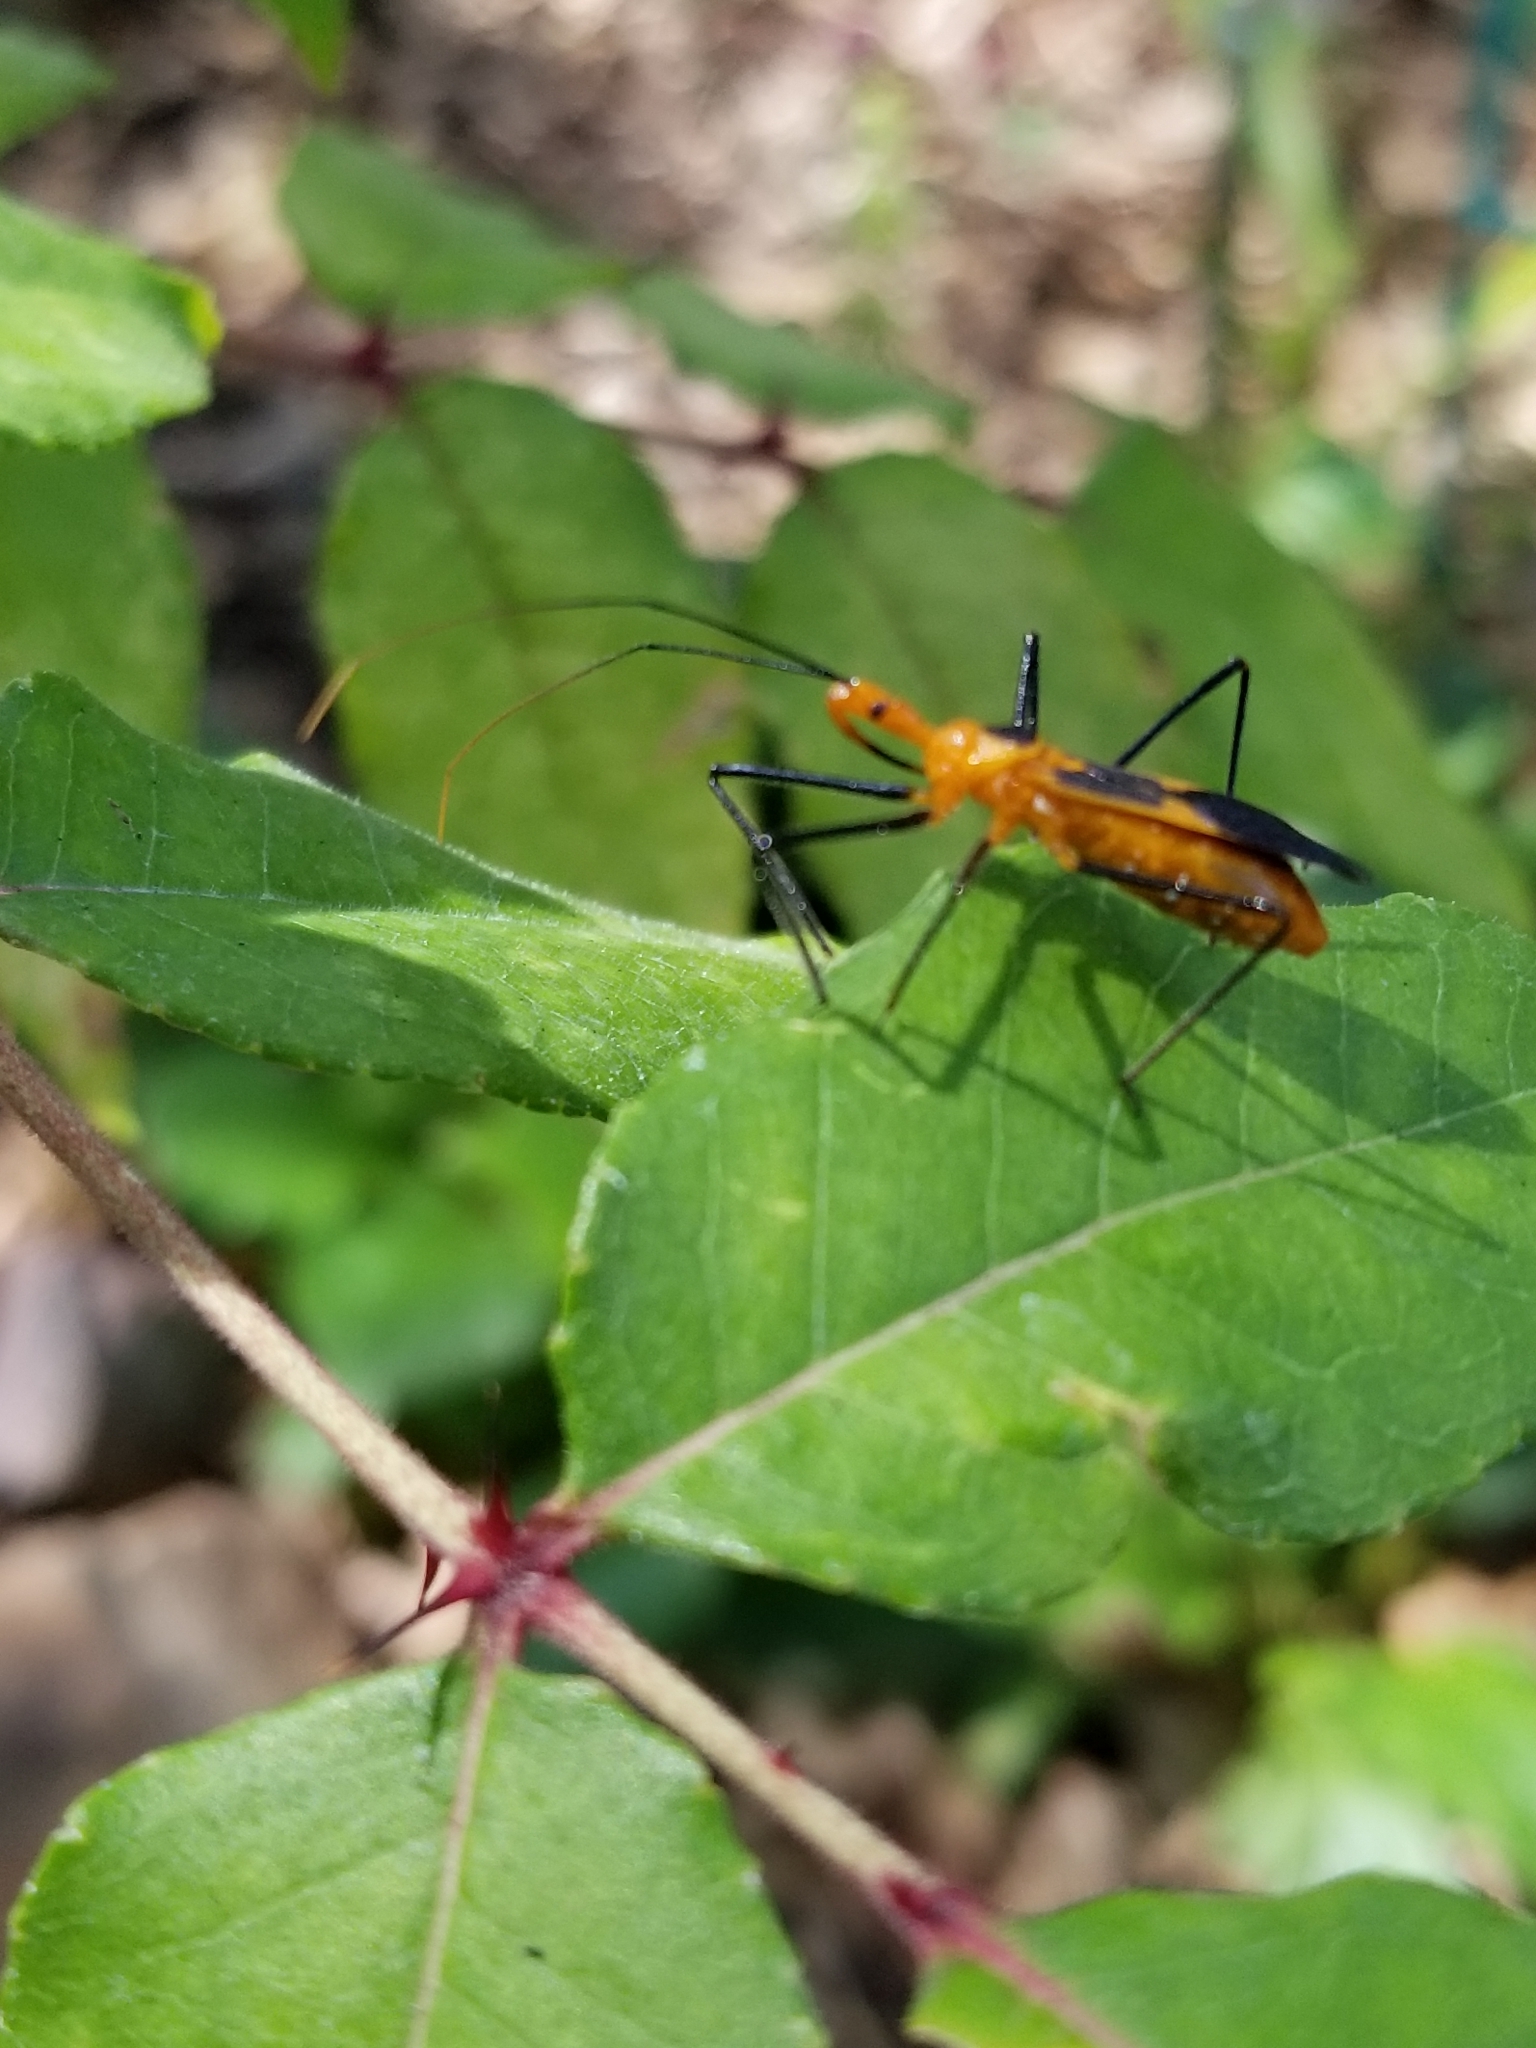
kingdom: Animalia
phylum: Arthropoda
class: Insecta
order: Hemiptera
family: Reduviidae
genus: Zelus
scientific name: Zelus longipes
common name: Milkweed assassin bug
